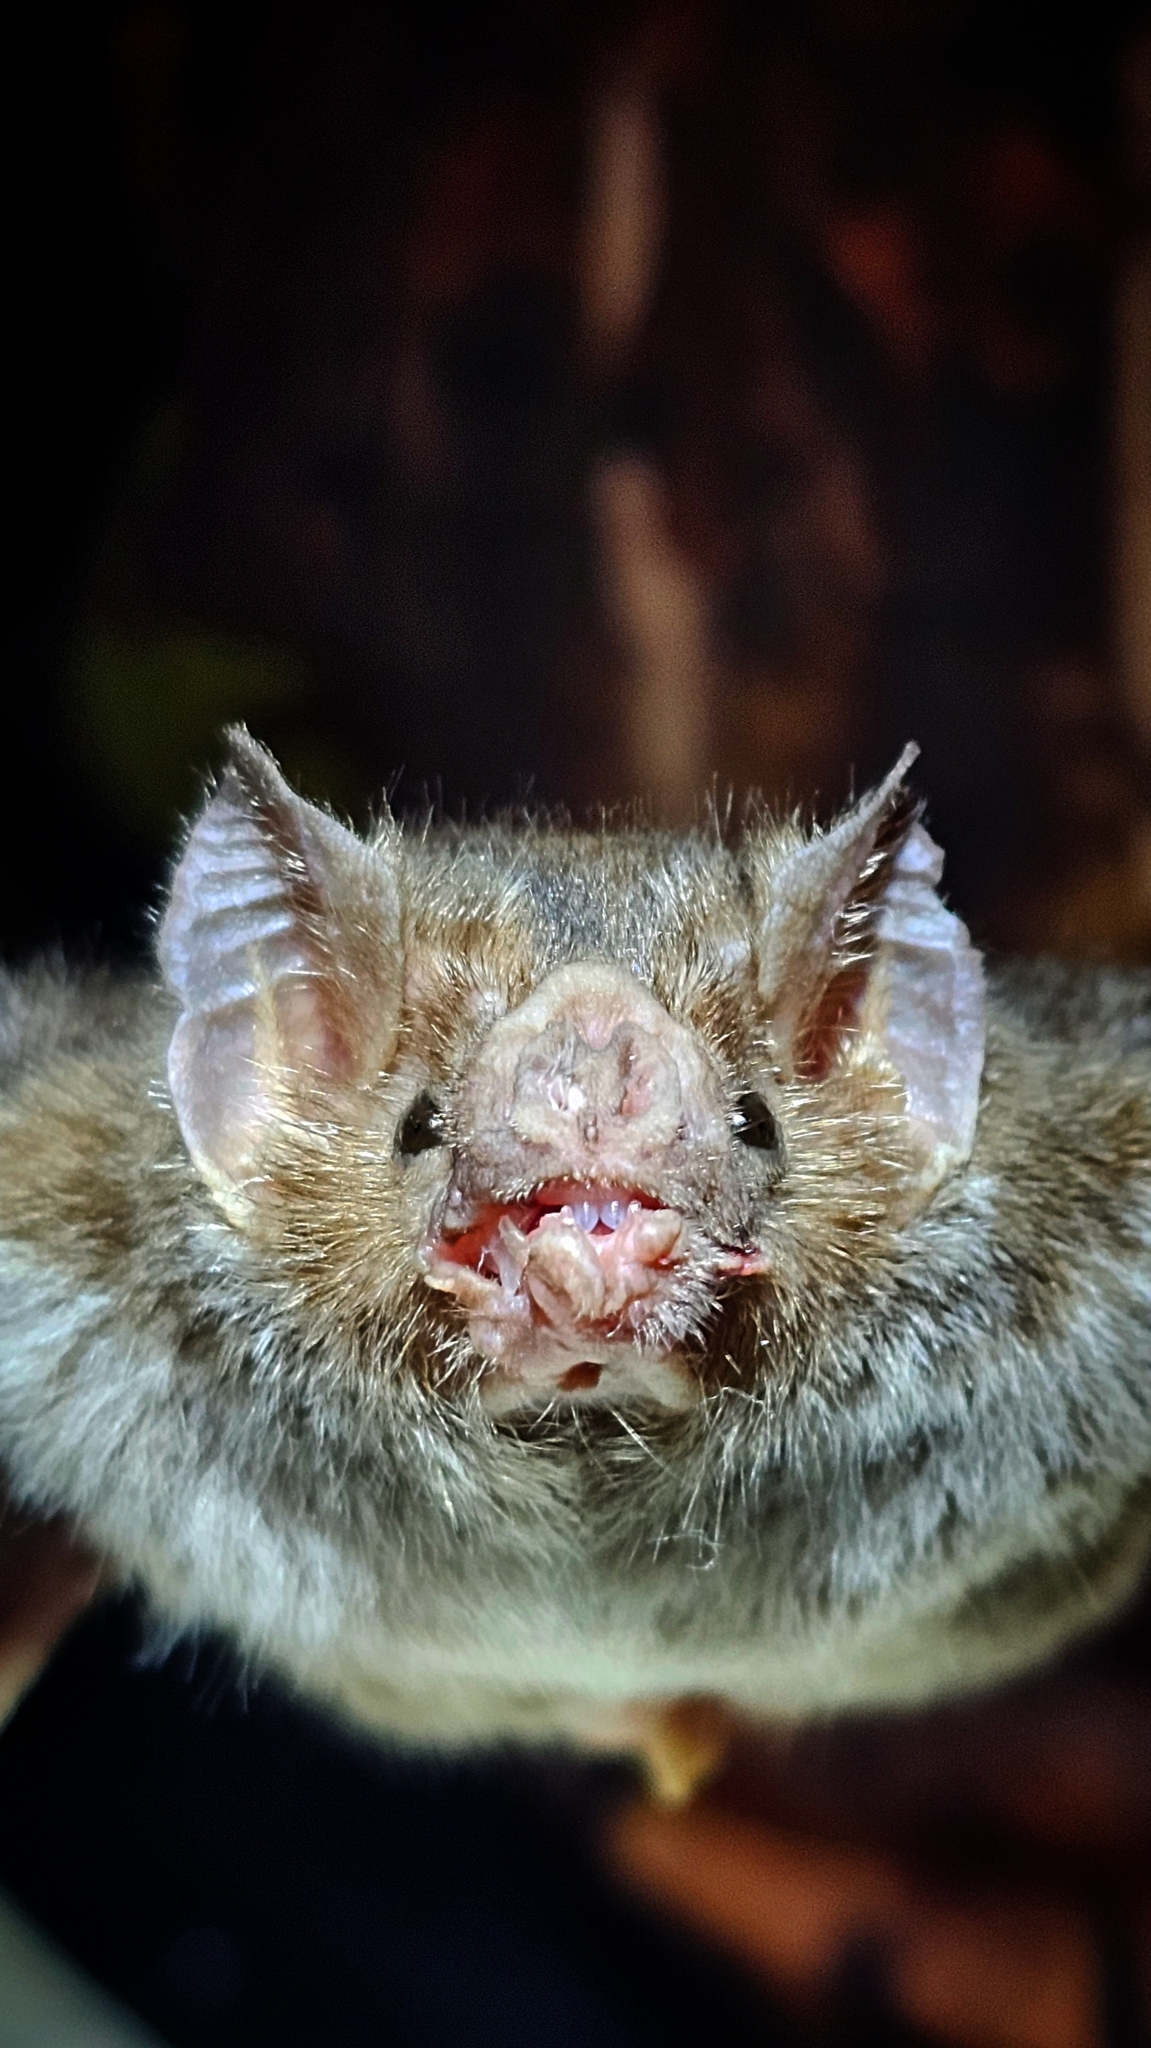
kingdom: Animalia
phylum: Chordata
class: Mammalia
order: Chiroptera
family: Phyllostomidae
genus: Desmodus
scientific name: Desmodus rotundus
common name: Common vampire bat
